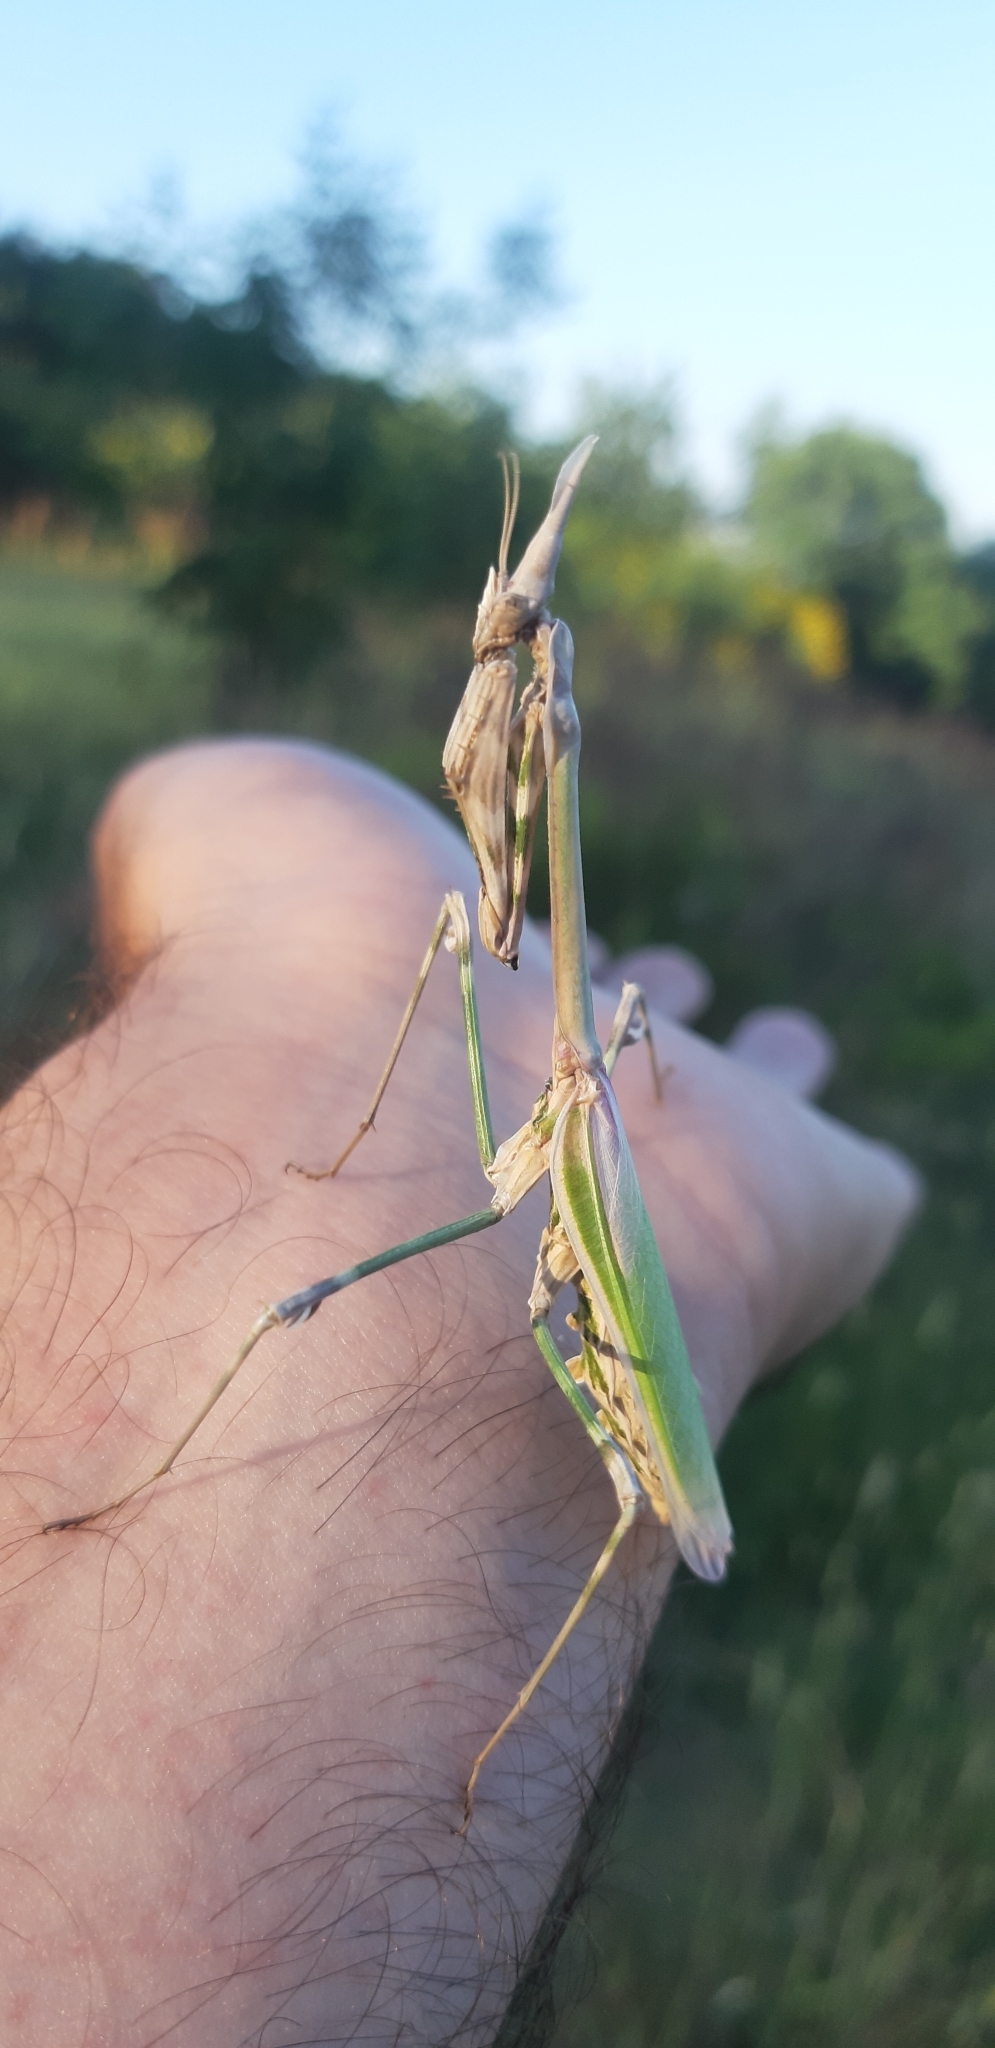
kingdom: Animalia
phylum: Arthropoda
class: Insecta
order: Mantodea
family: Empusidae
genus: Empusa
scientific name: Empusa pennata
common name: Conehead mantis
